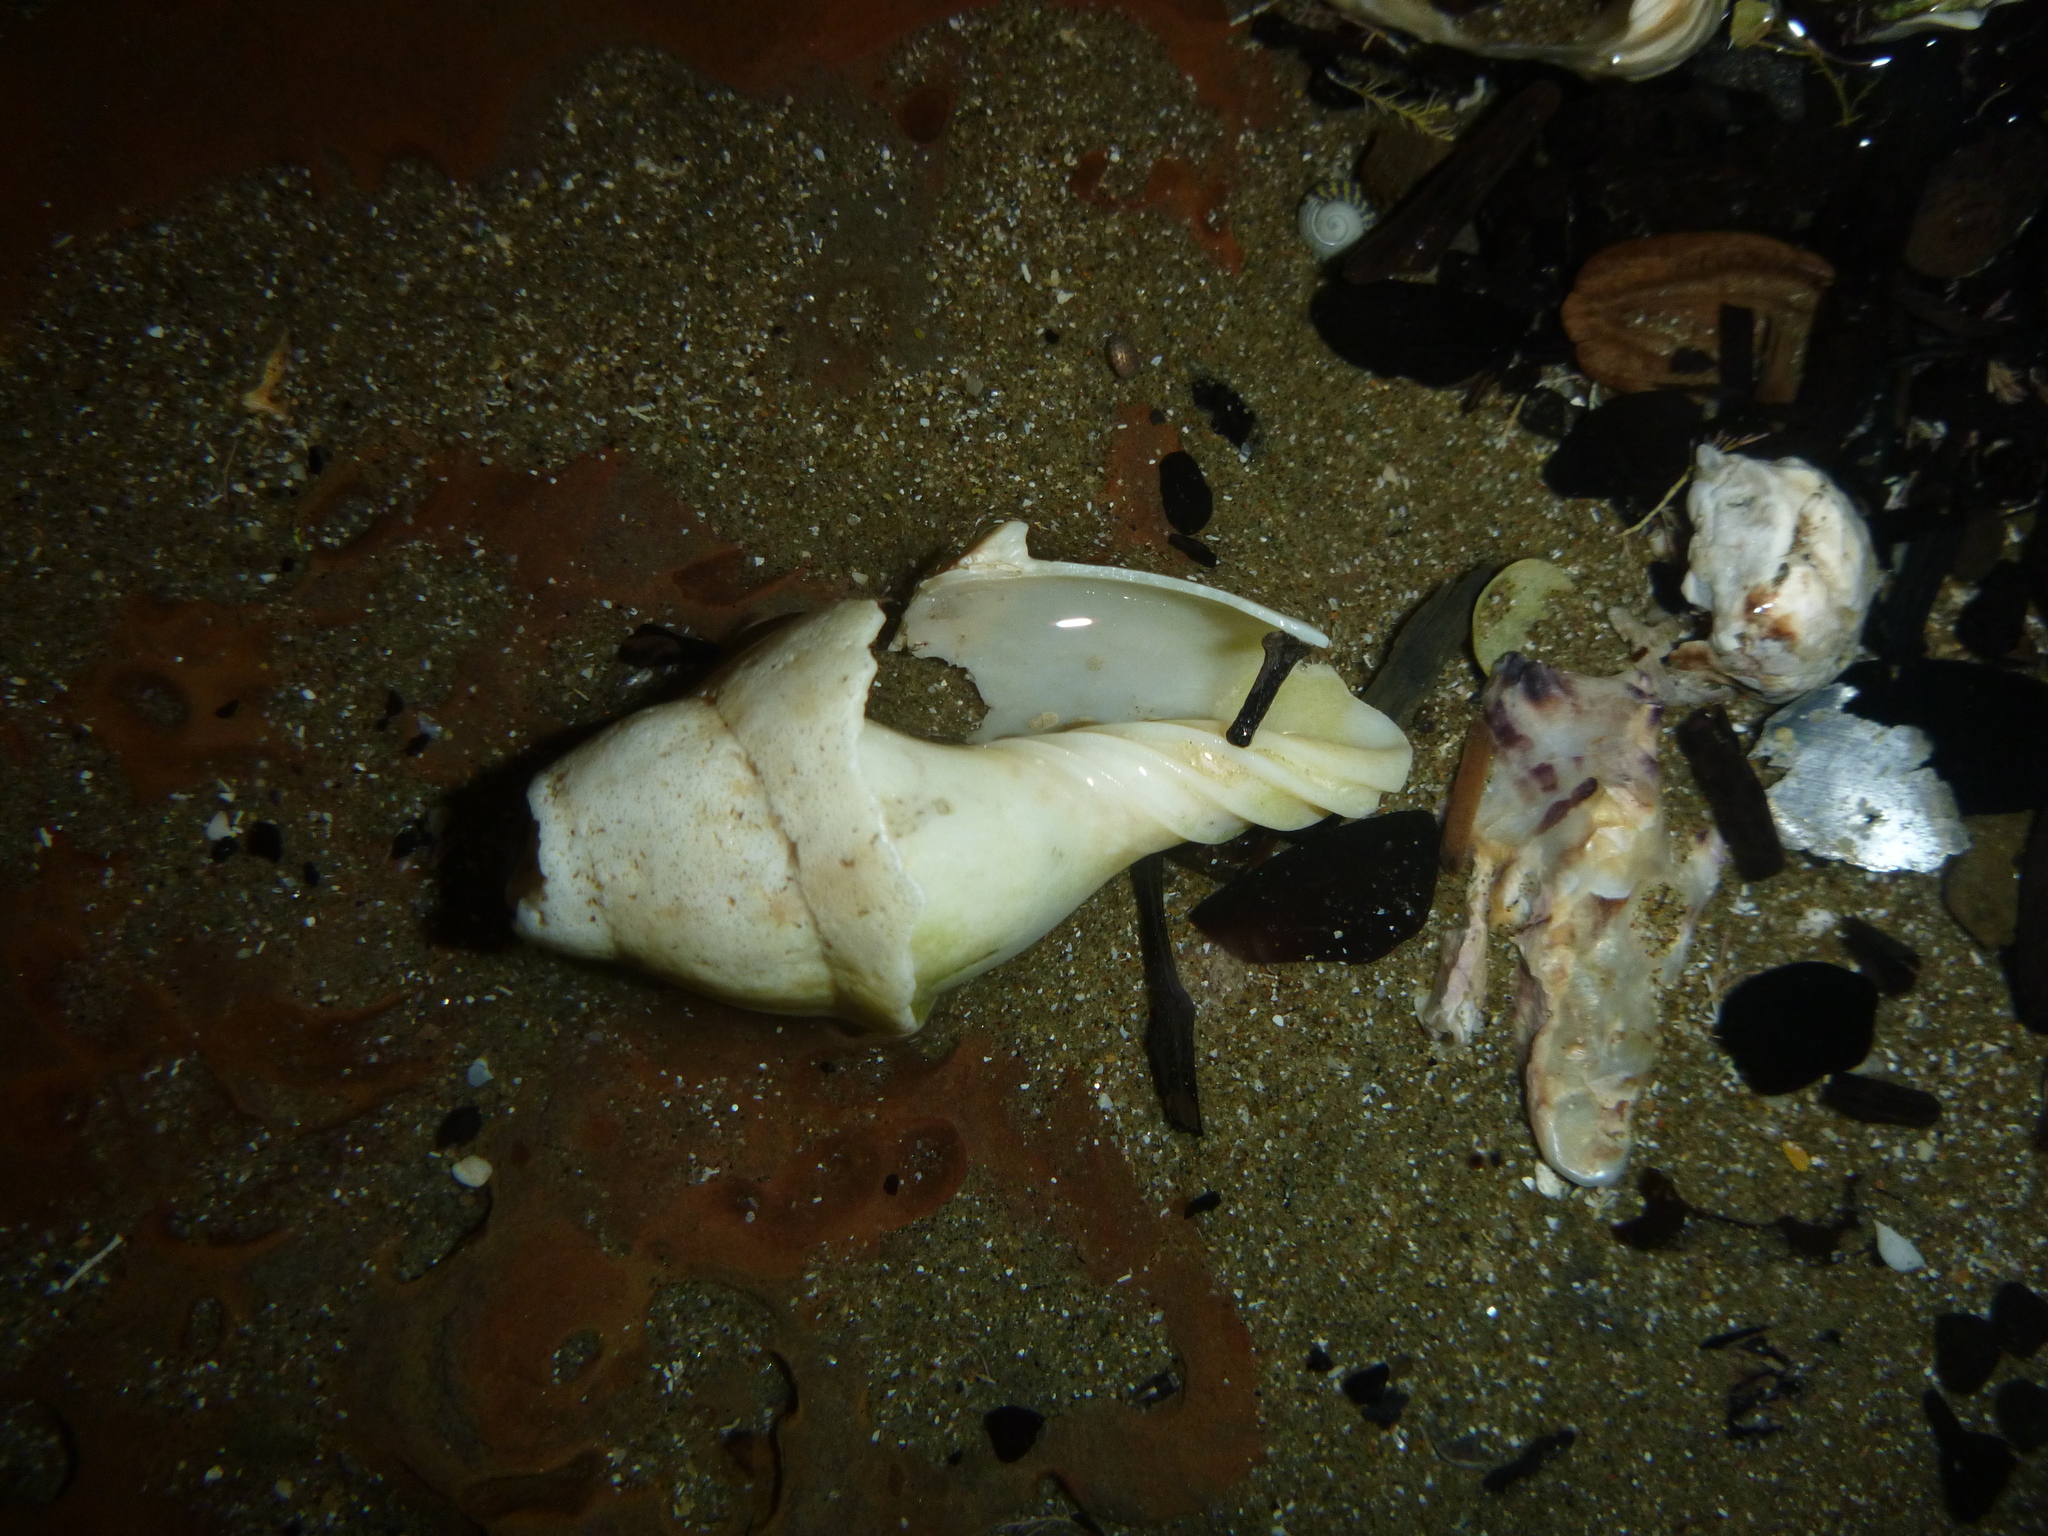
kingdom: Animalia
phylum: Mollusca
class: Gastropoda
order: Neogastropoda
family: Volutidae
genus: Alcithoe
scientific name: Alcithoe arabica
